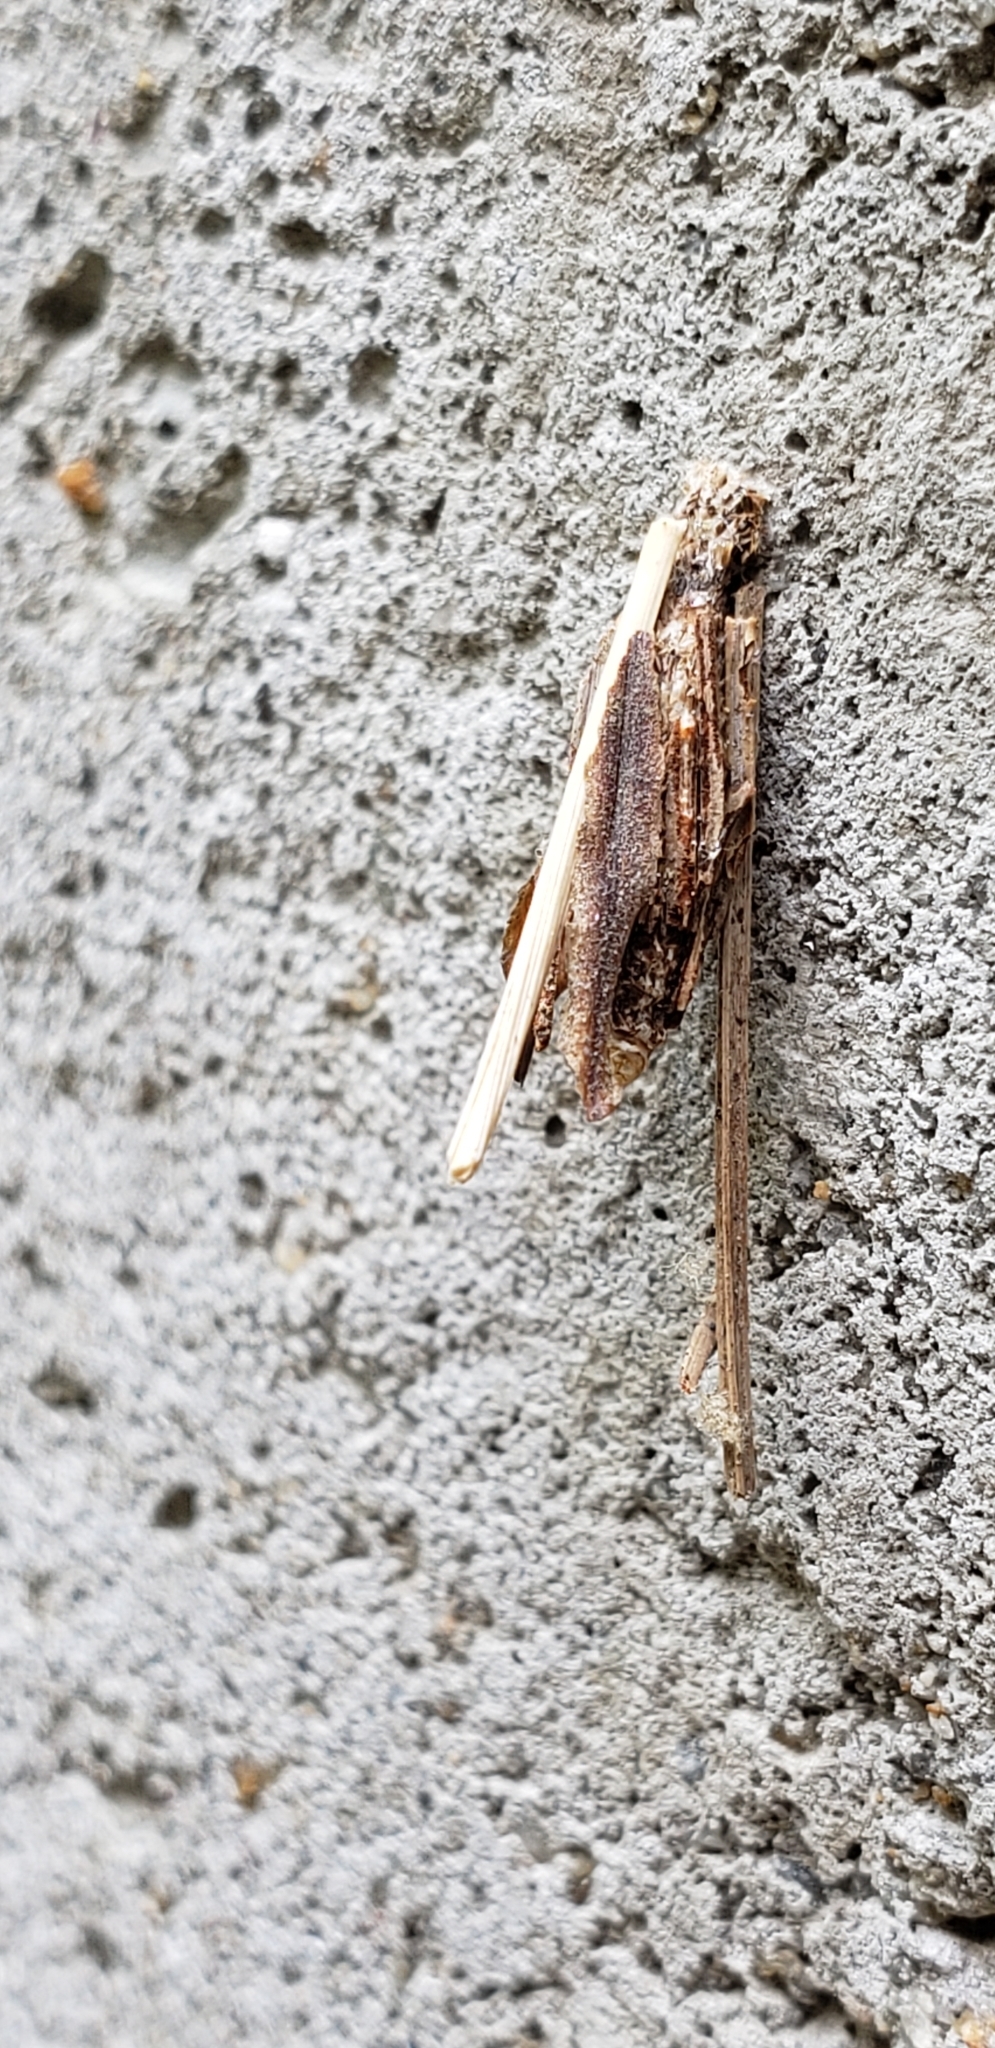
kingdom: Animalia
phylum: Arthropoda
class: Insecta
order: Lepidoptera
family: Psychidae
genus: Psyche
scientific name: Psyche casta
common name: Common sweep
